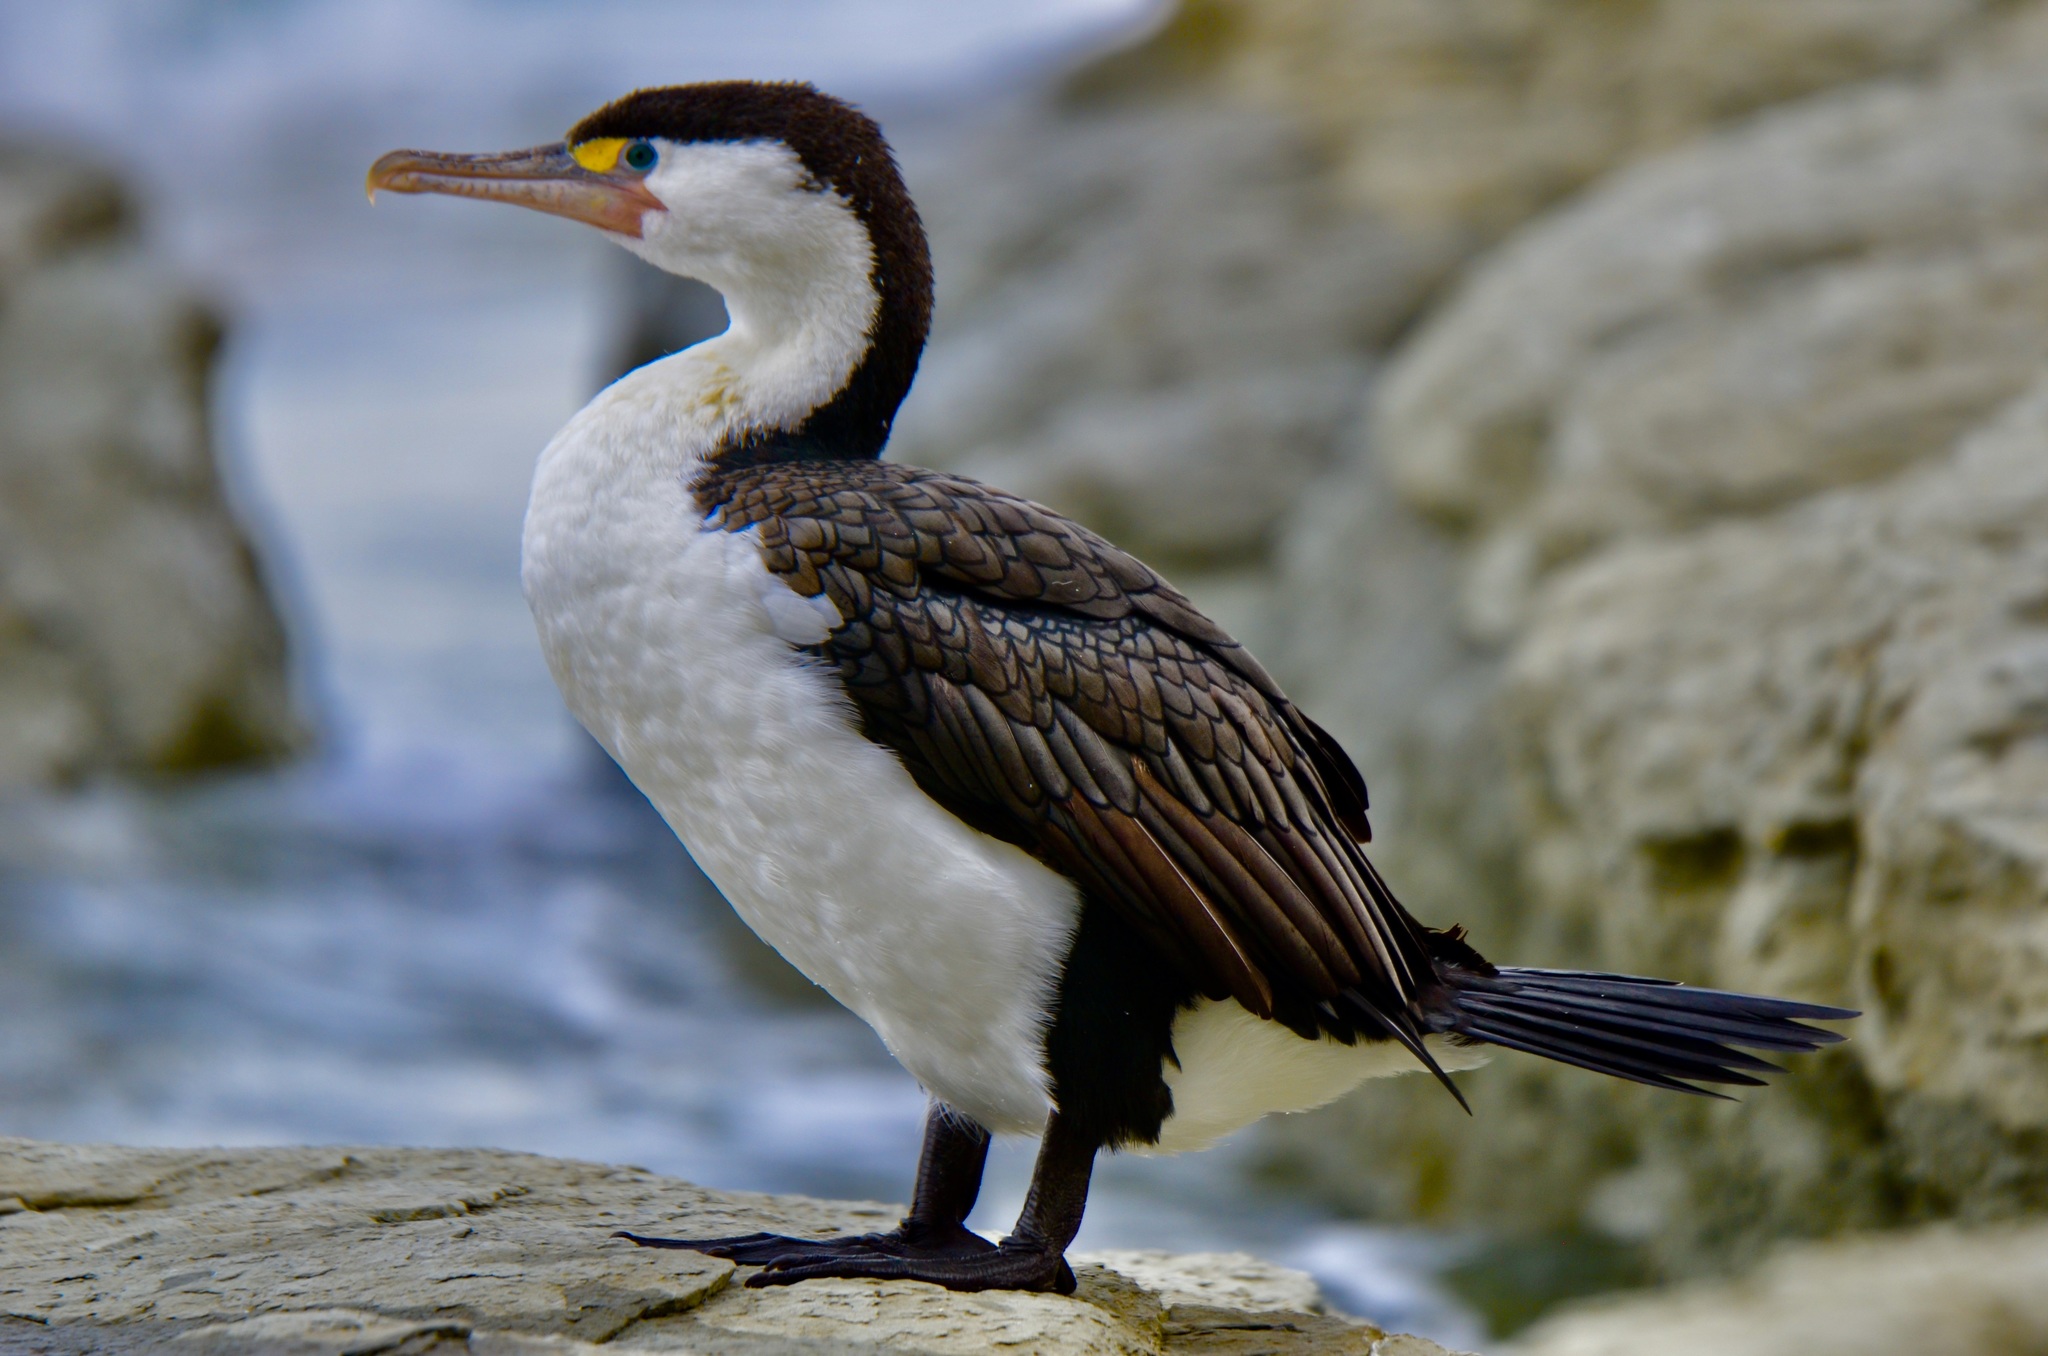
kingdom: Animalia
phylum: Chordata
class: Aves
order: Suliformes
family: Phalacrocoracidae
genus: Phalacrocorax
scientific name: Phalacrocorax varius
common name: Pied cormorant
